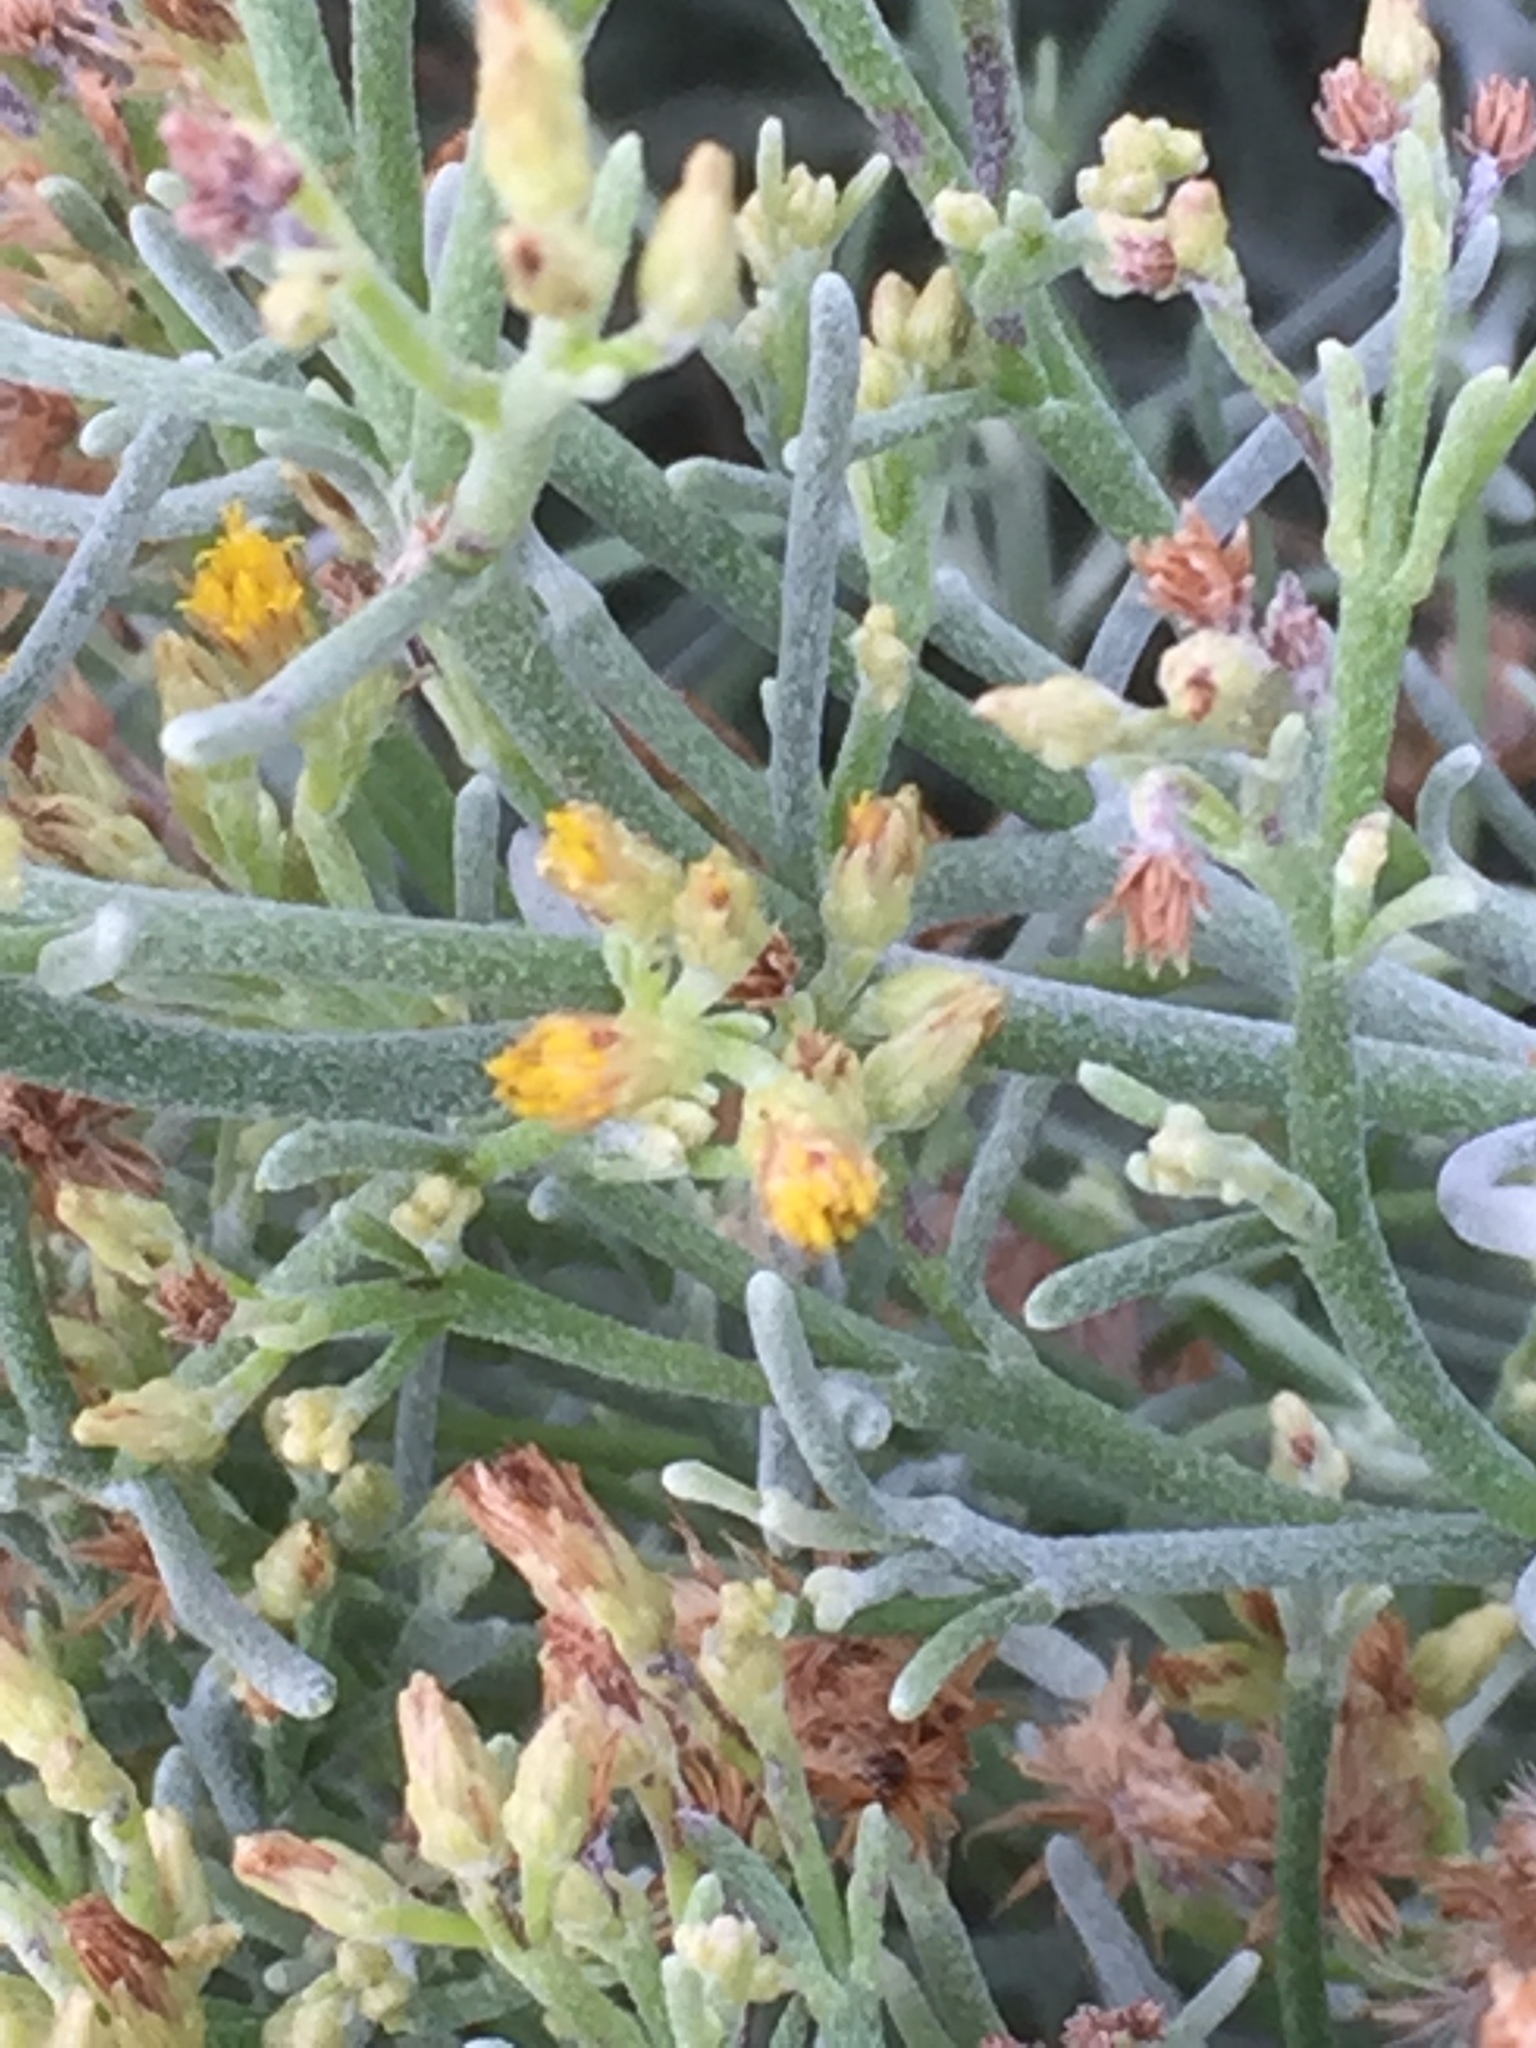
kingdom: Plantae
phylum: Tracheophyta
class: Magnoliopsida
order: Asterales
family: Asteraceae
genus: Schizogyne
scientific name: Schizogyne sericea
